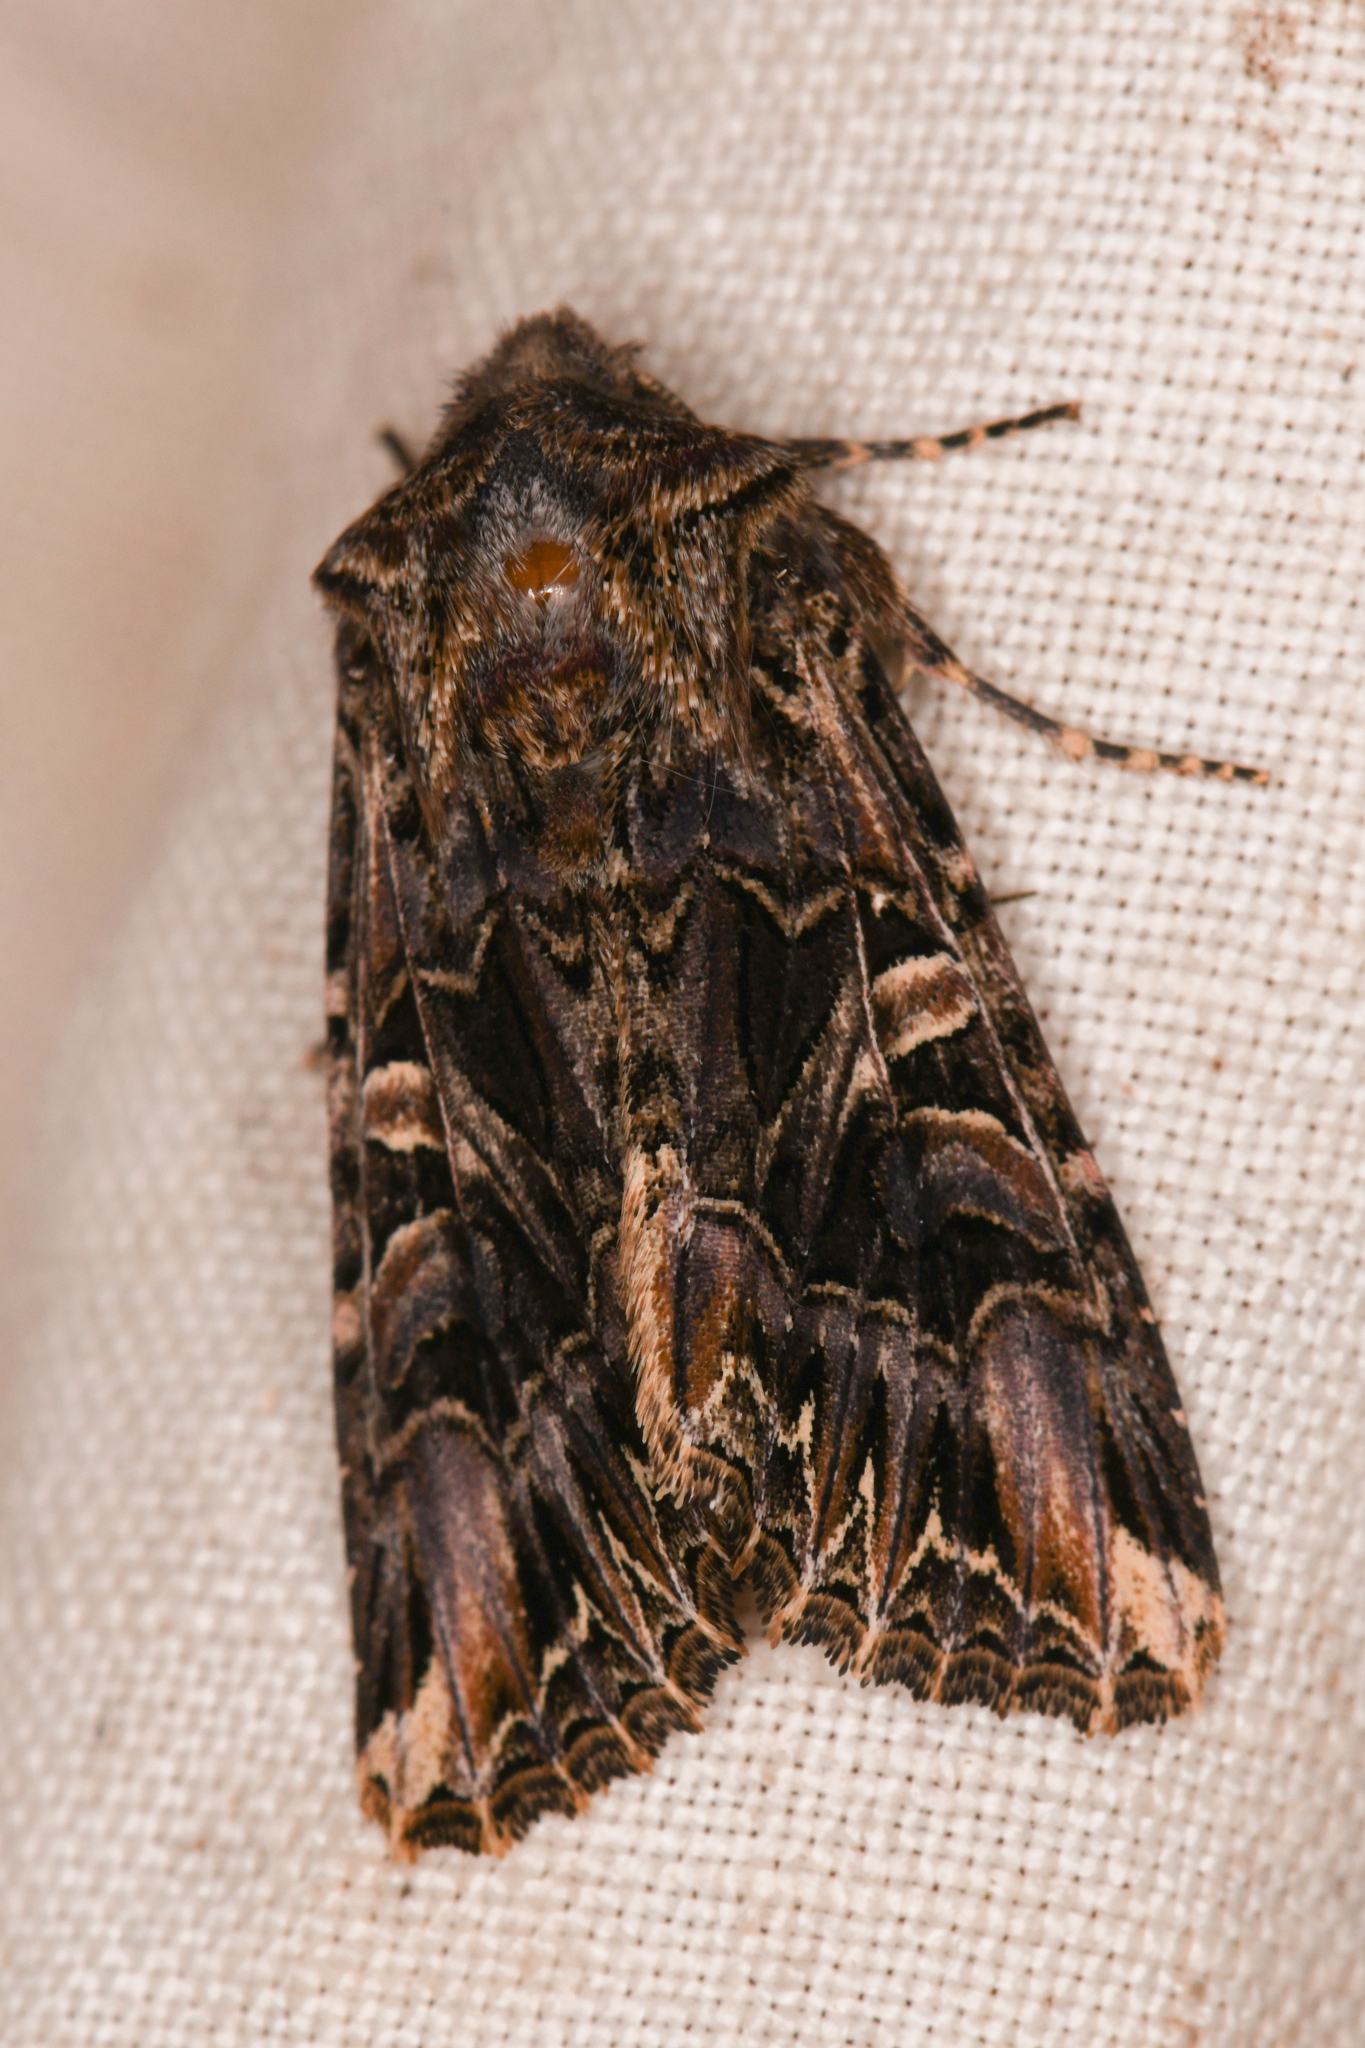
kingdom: Animalia
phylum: Arthropoda
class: Insecta
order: Lepidoptera
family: Noctuidae
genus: Anarta
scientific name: Anarta farnhami
